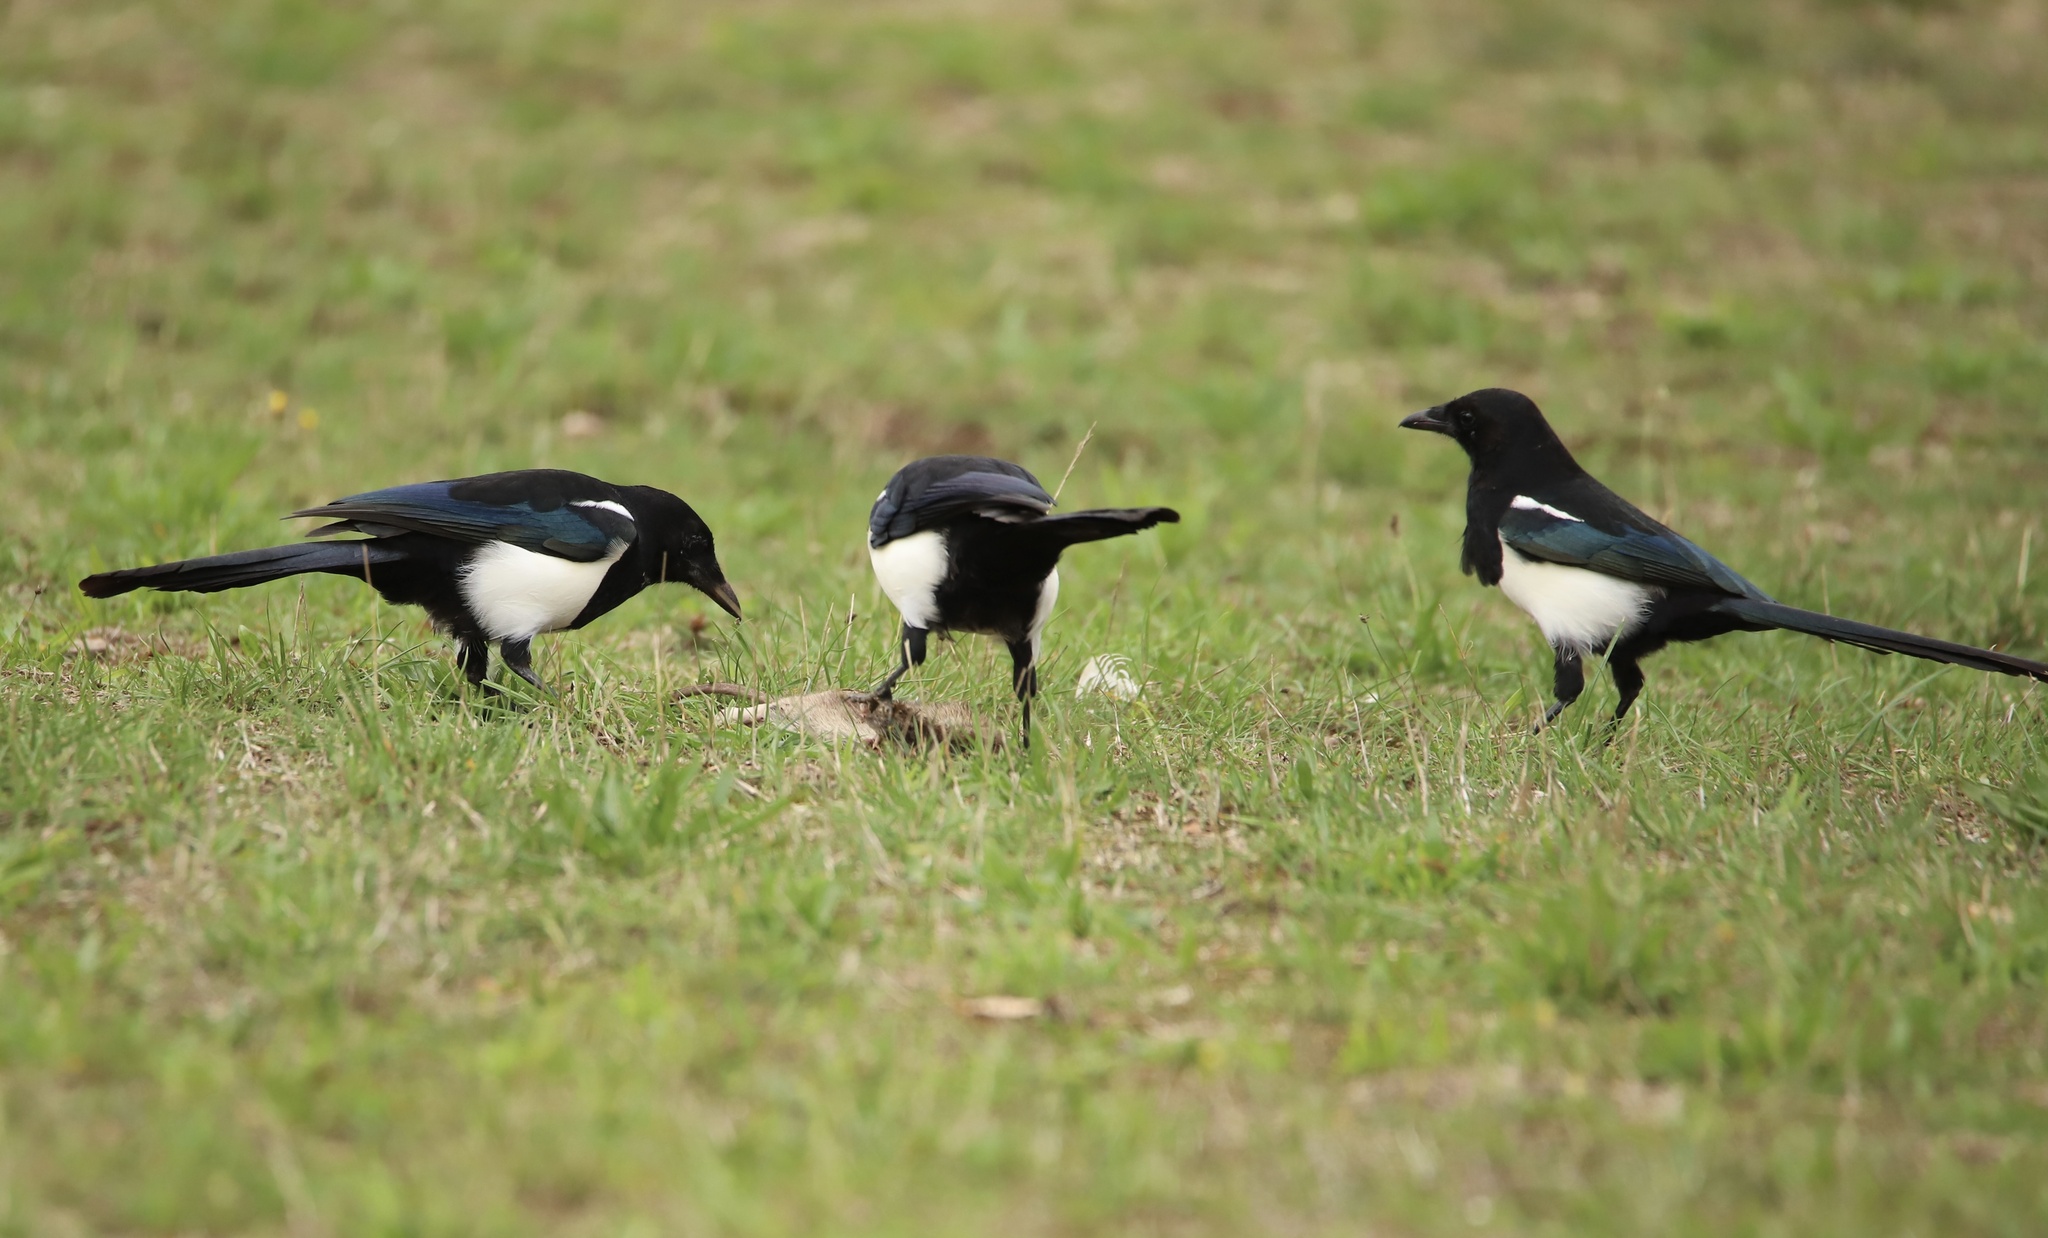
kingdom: Animalia
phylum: Chordata
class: Mammalia
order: Rodentia
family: Muridae
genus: Rattus
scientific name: Rattus norvegicus
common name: Brown rat
